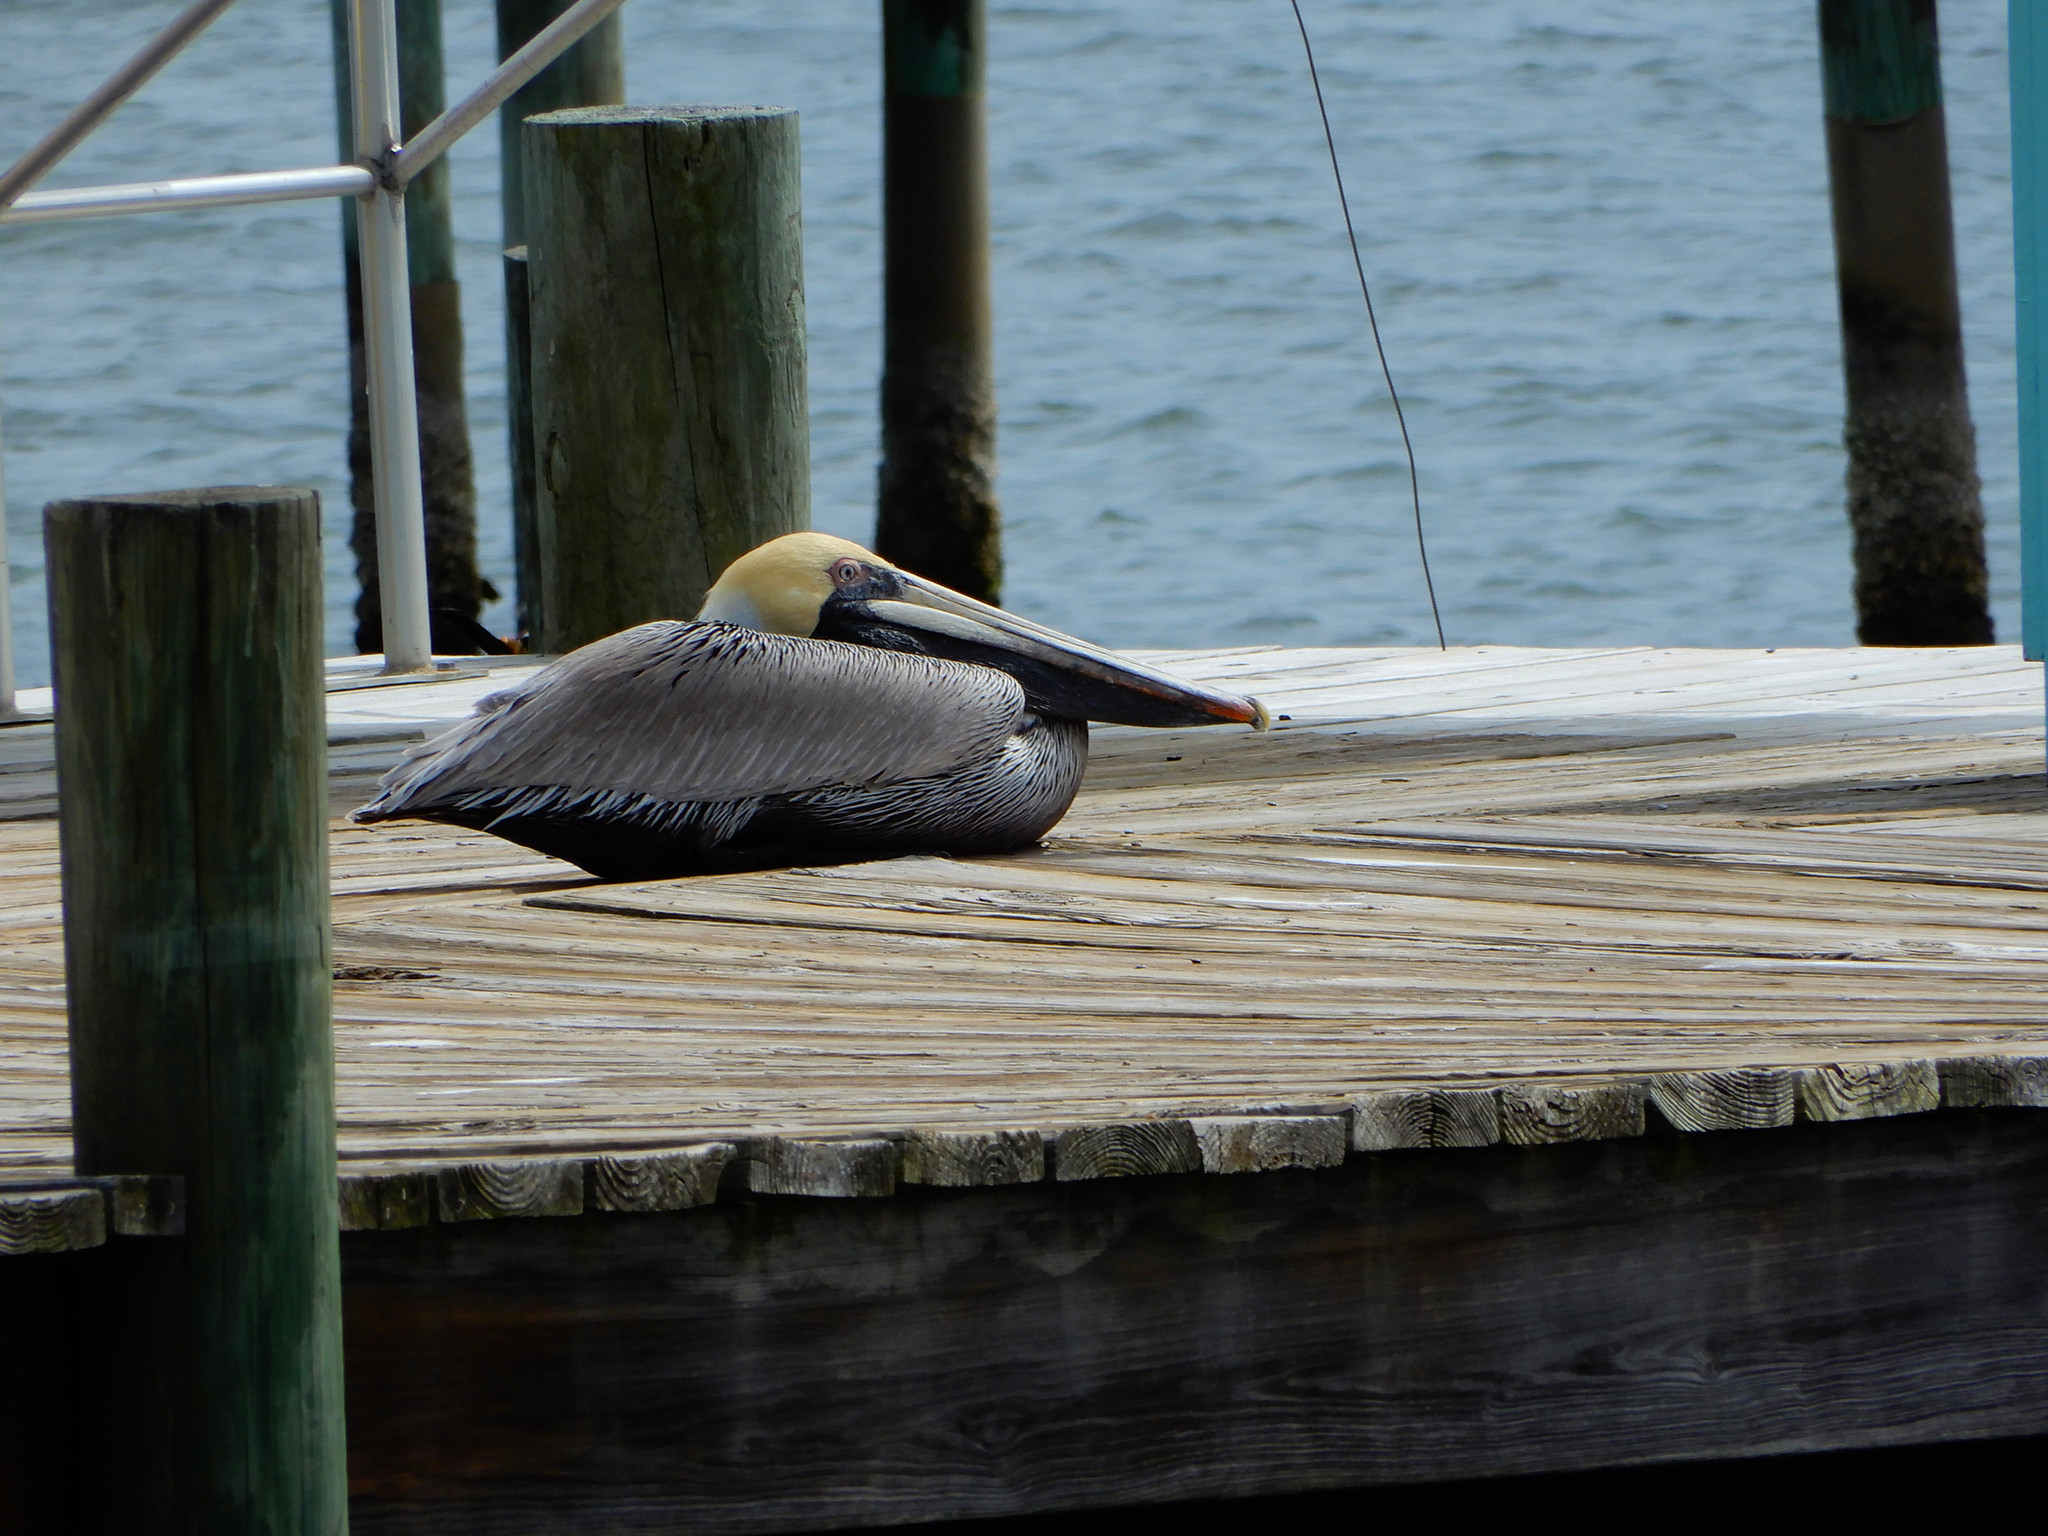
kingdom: Animalia
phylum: Chordata
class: Aves
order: Pelecaniformes
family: Pelecanidae
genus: Pelecanus
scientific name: Pelecanus occidentalis
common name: Brown pelican
